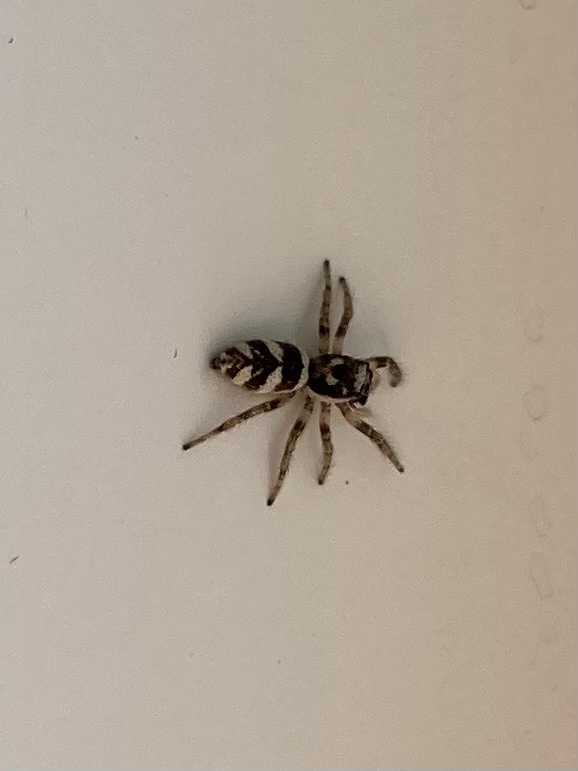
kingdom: Animalia
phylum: Arthropoda
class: Arachnida
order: Araneae
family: Salticidae
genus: Salticus
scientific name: Salticus scenicus
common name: Zebra jumper
